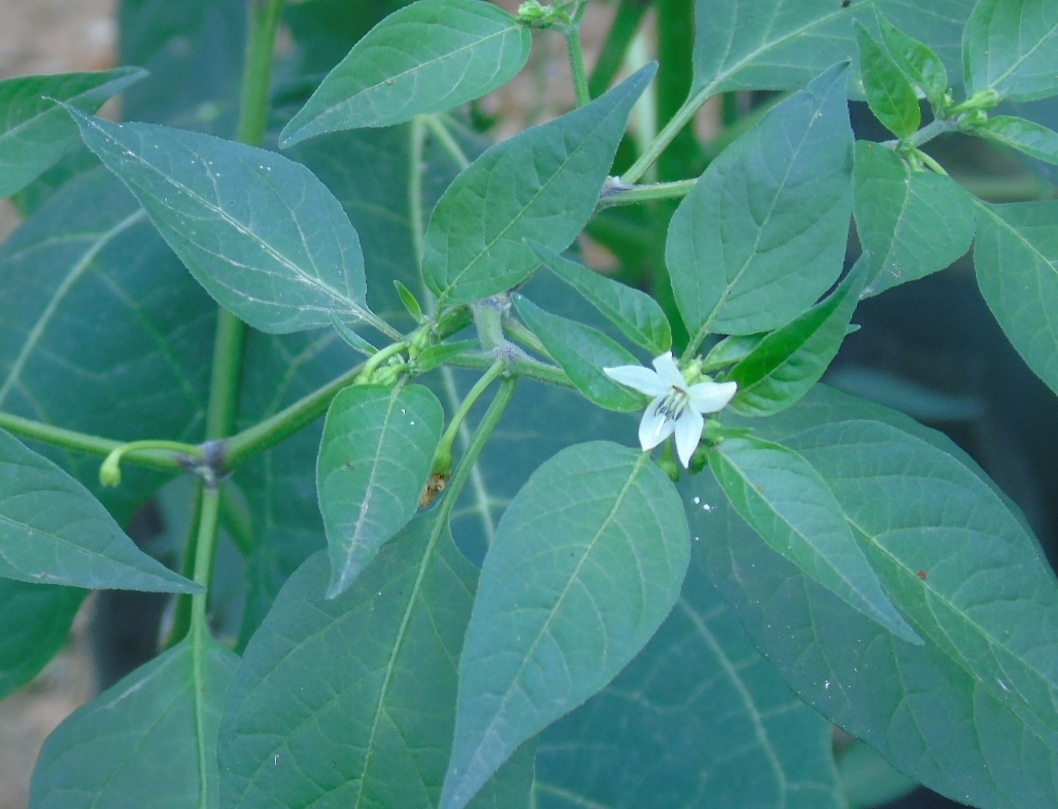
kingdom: Plantae
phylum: Tracheophyta
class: Magnoliopsida
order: Solanales
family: Solanaceae
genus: Capsicum
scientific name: Capsicum annuum
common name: Sweet pepper
